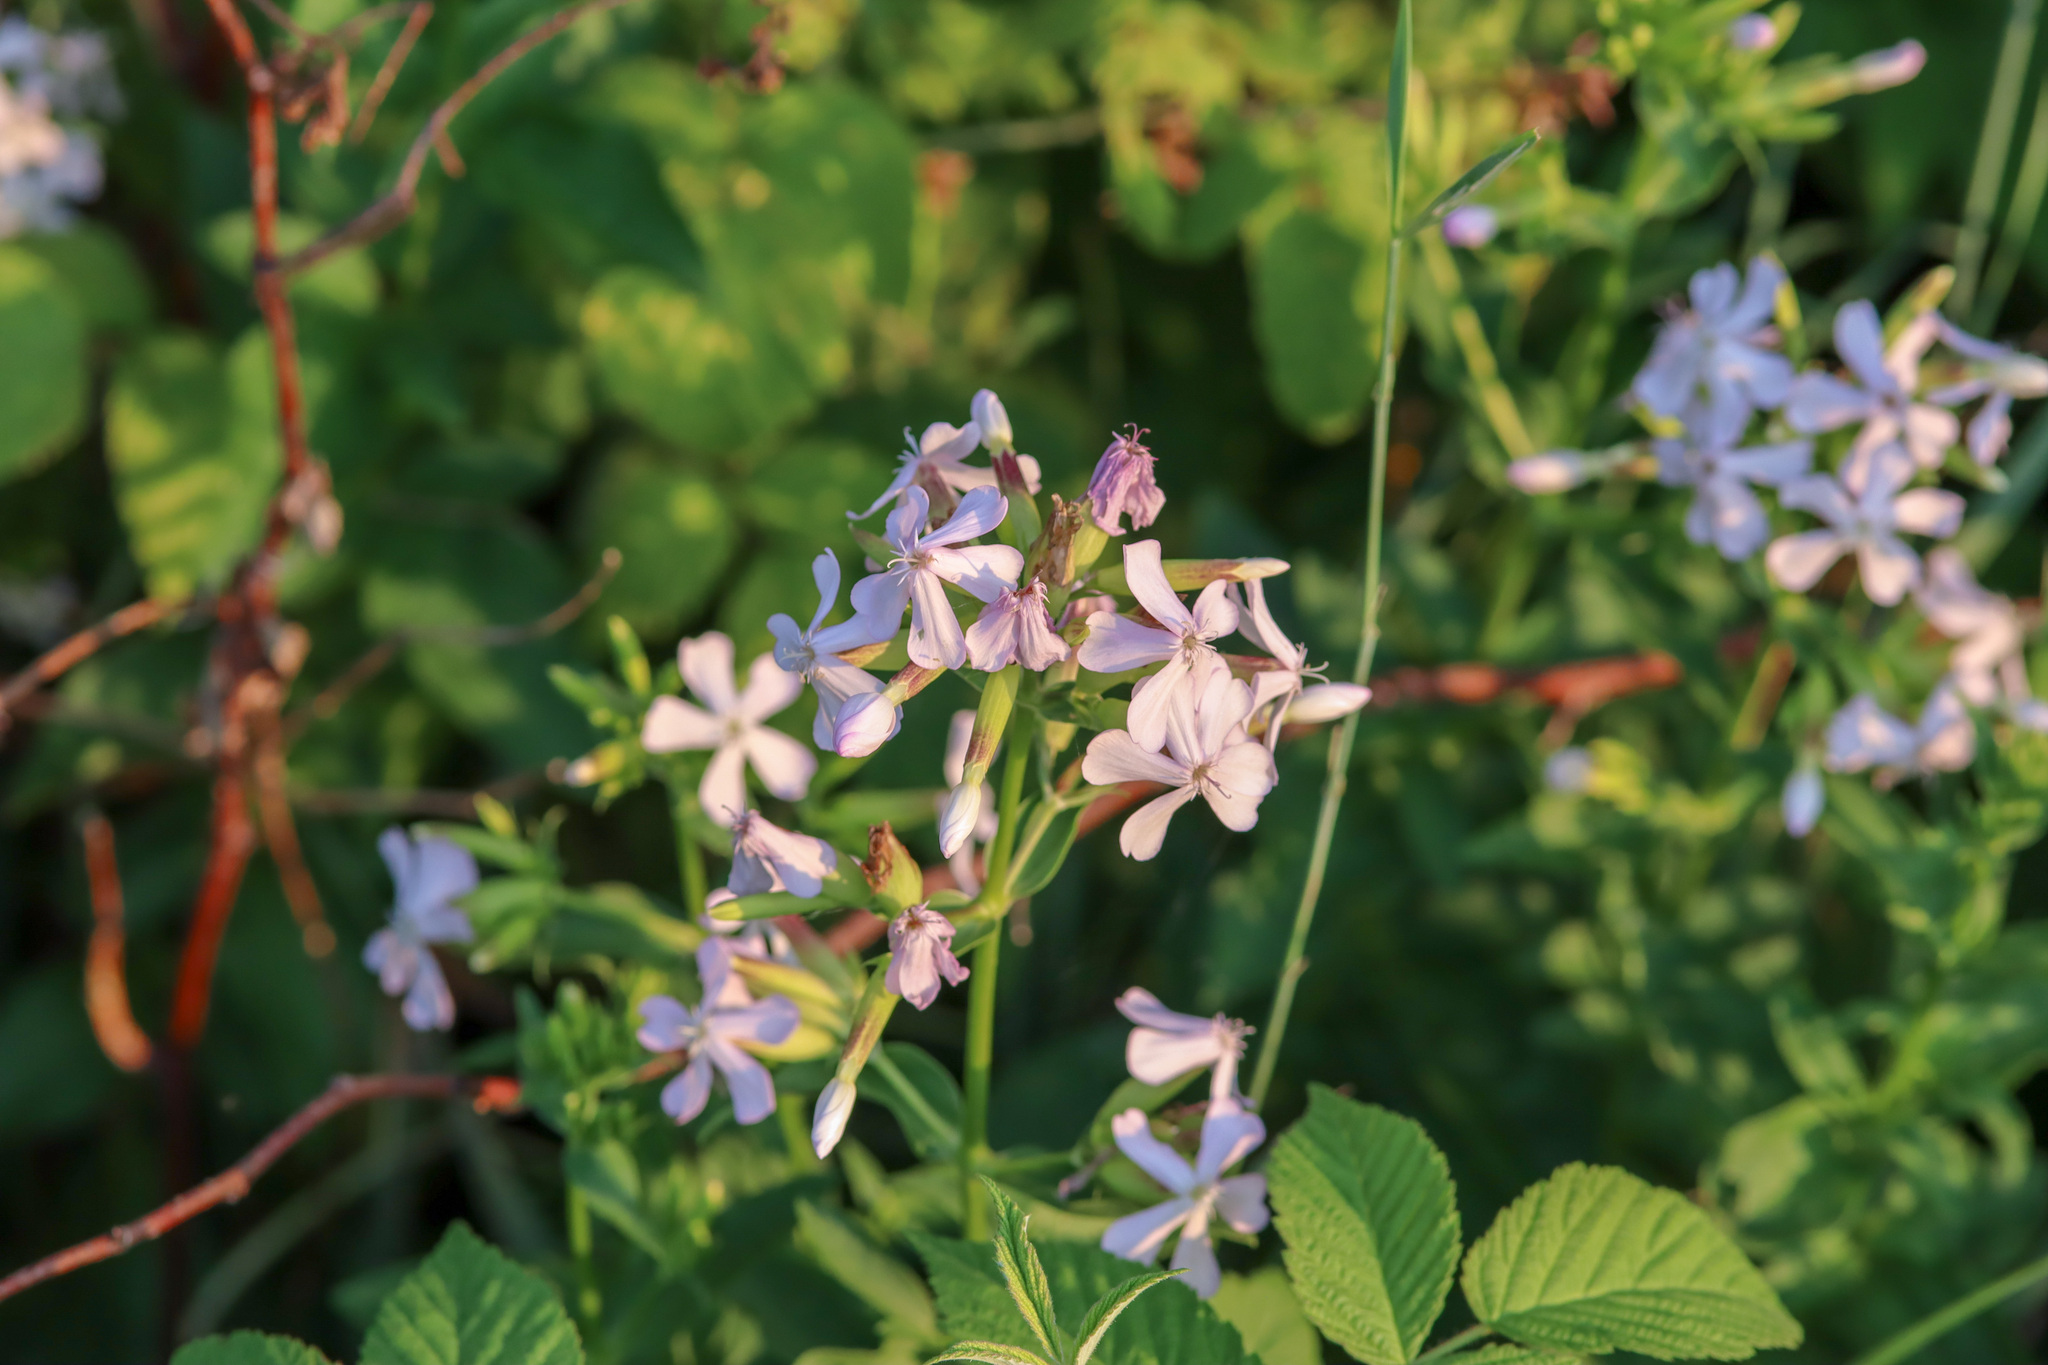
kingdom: Plantae
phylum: Tracheophyta
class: Magnoliopsida
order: Caryophyllales
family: Caryophyllaceae
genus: Saponaria
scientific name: Saponaria officinalis
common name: Soapwort
